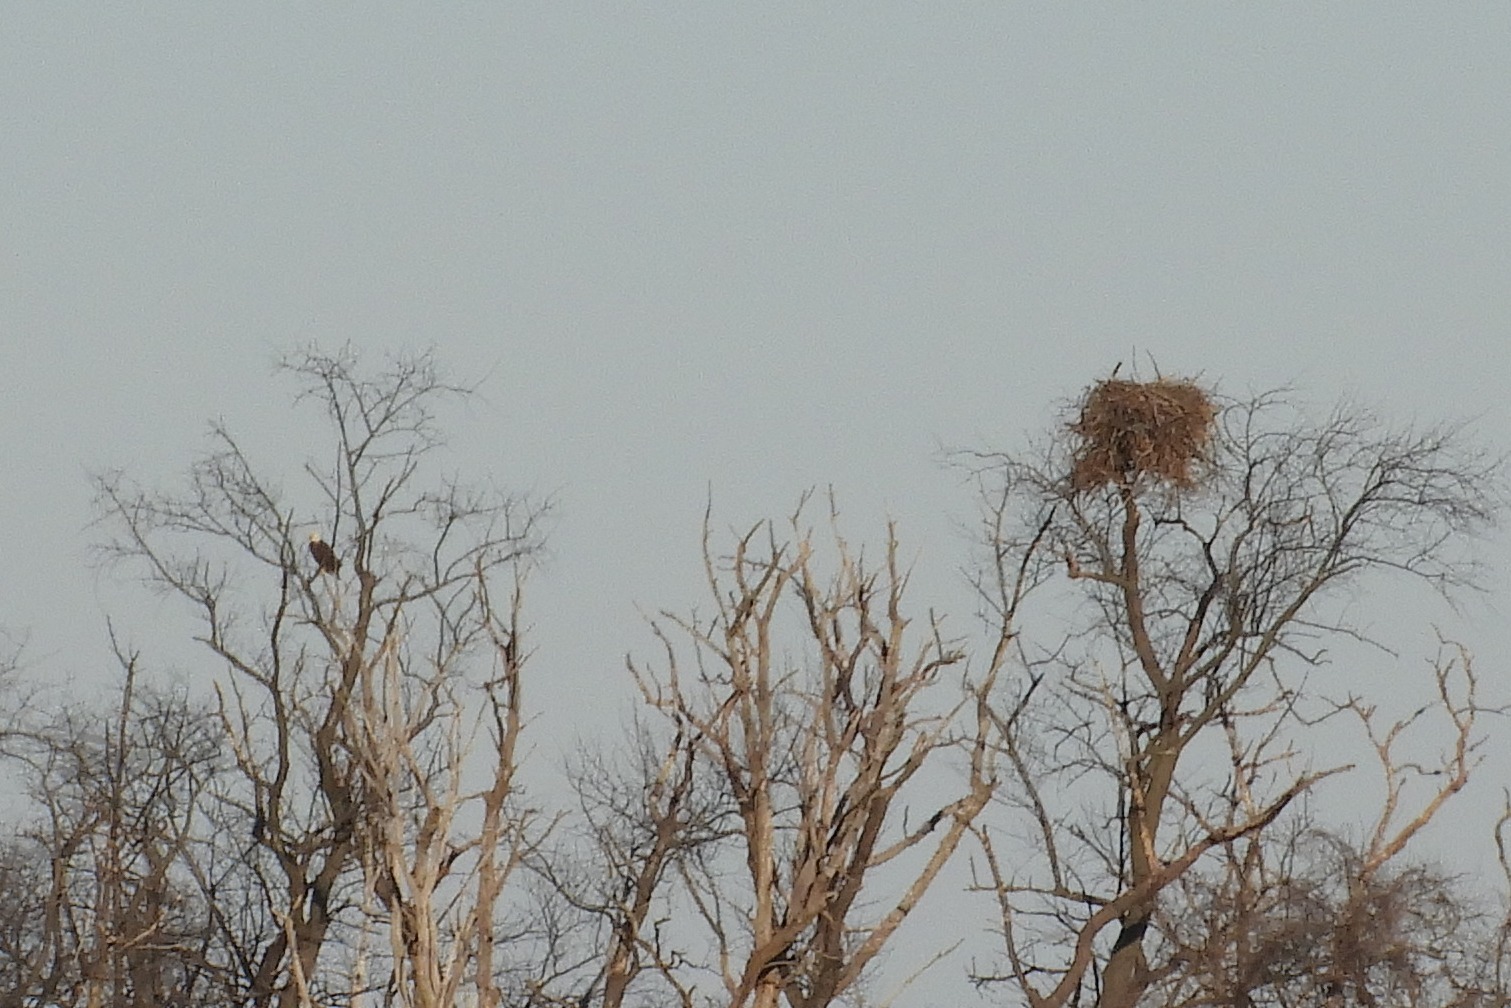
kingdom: Animalia
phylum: Chordata
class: Aves
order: Accipitriformes
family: Accipitridae
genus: Haliaeetus
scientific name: Haliaeetus leucocephalus
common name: Bald eagle
